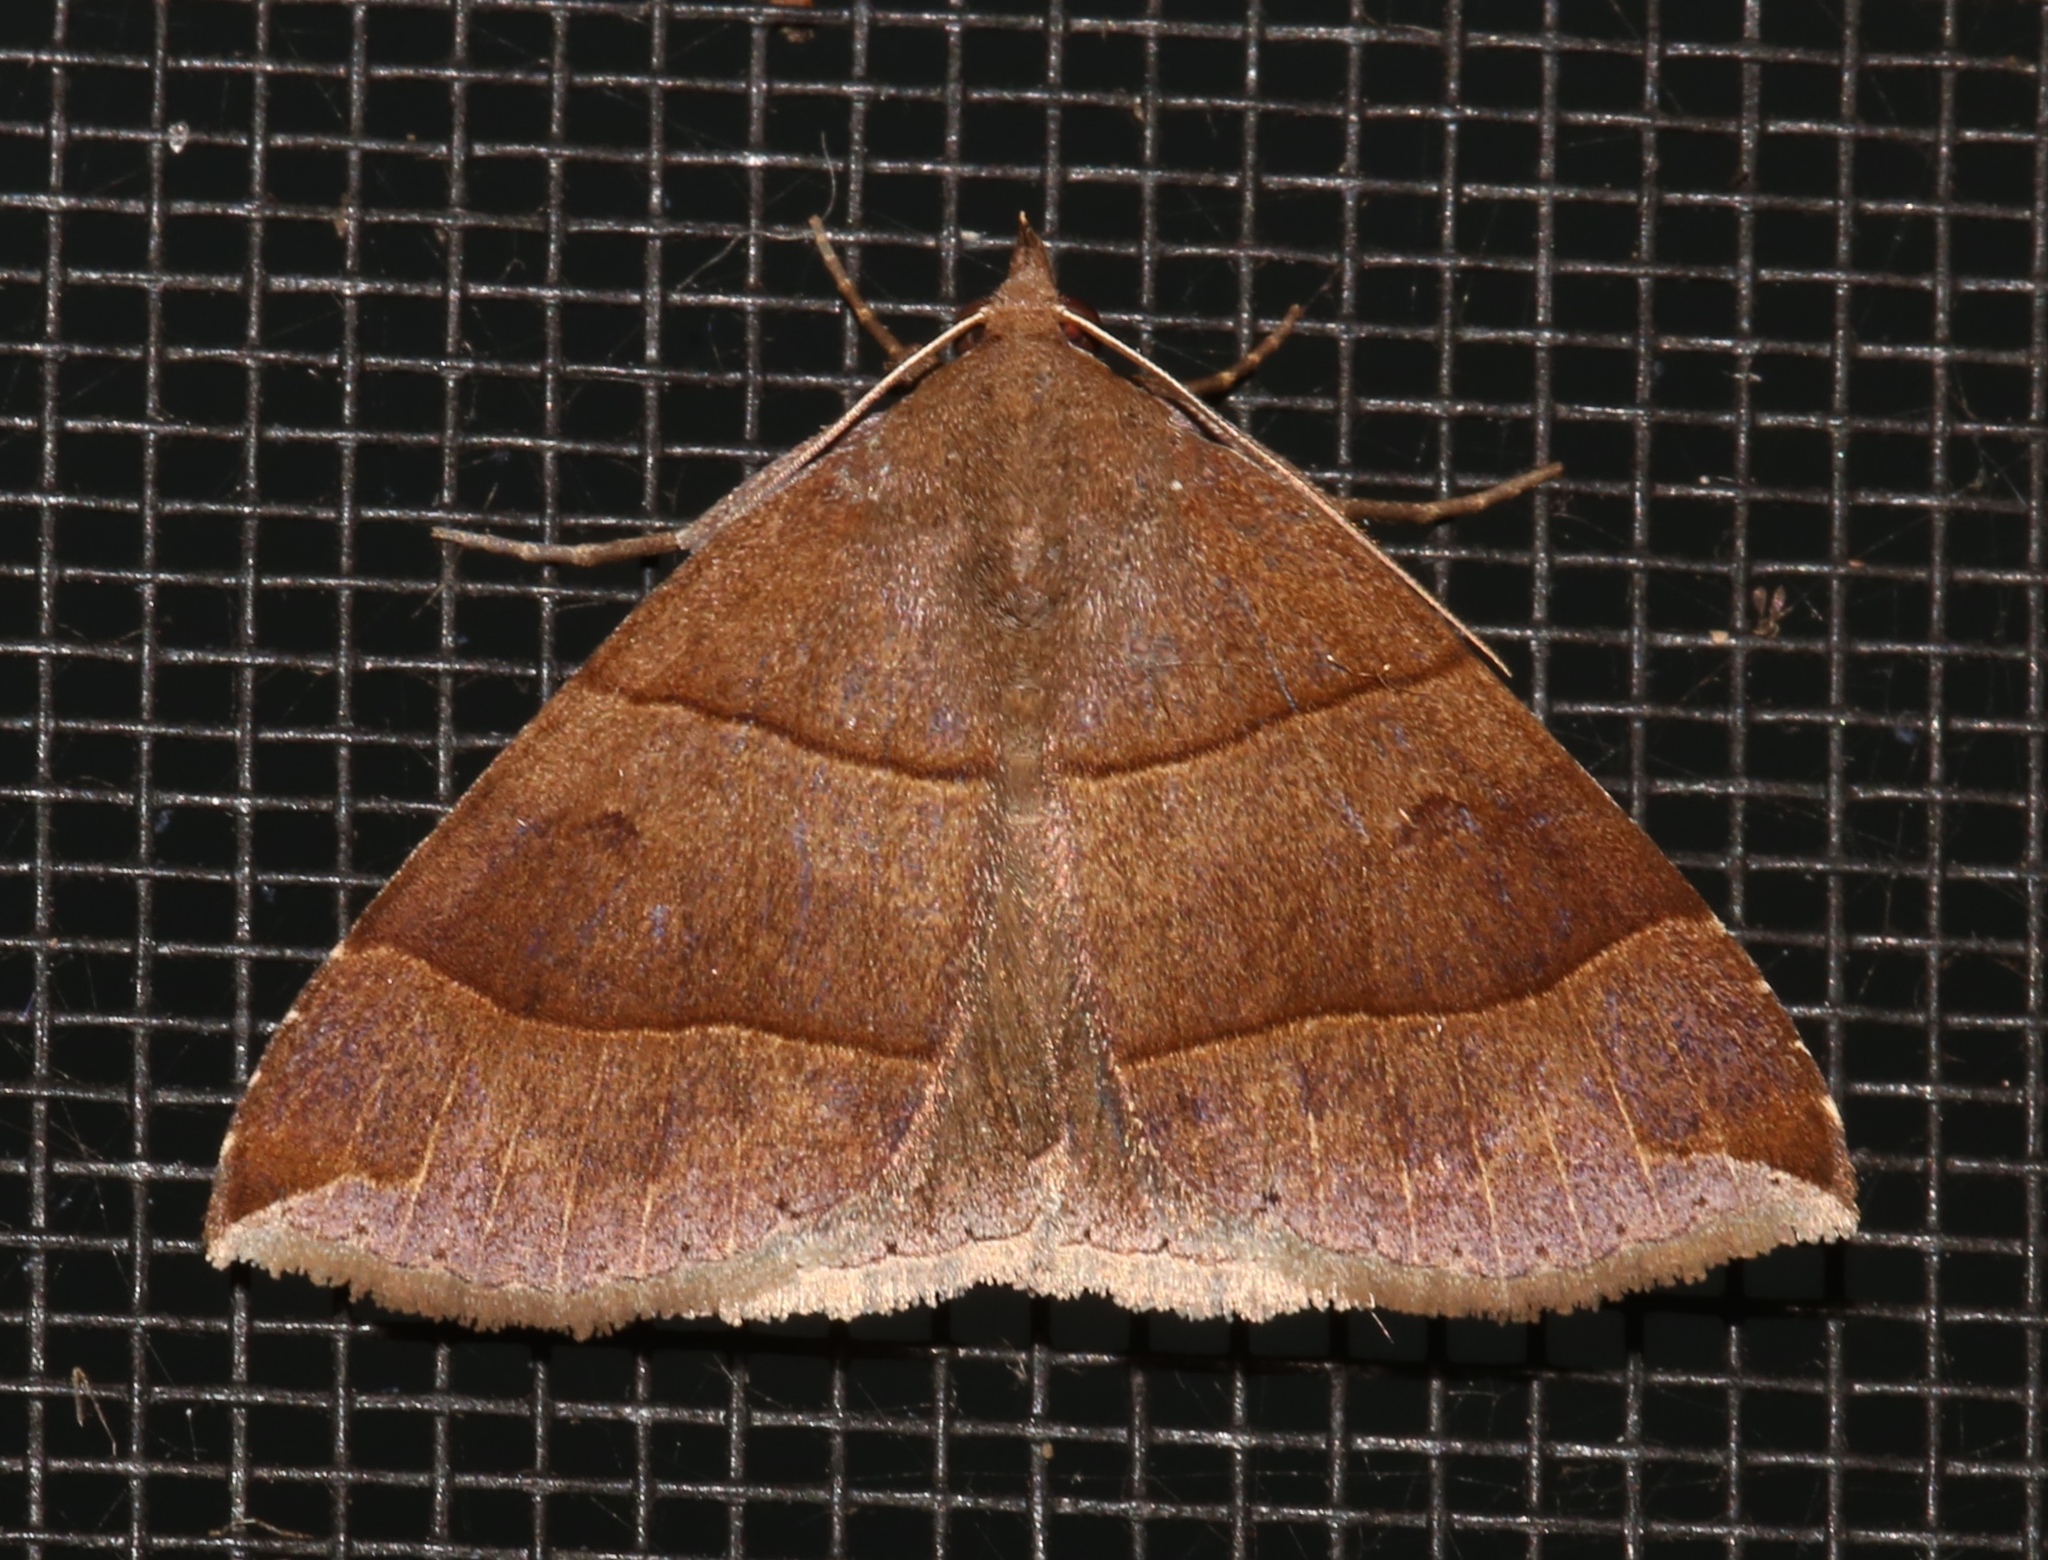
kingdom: Animalia
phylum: Arthropoda
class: Insecta
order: Lepidoptera
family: Erebidae
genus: Parallelia
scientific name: Parallelia bistriaris
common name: Maple looper moth
